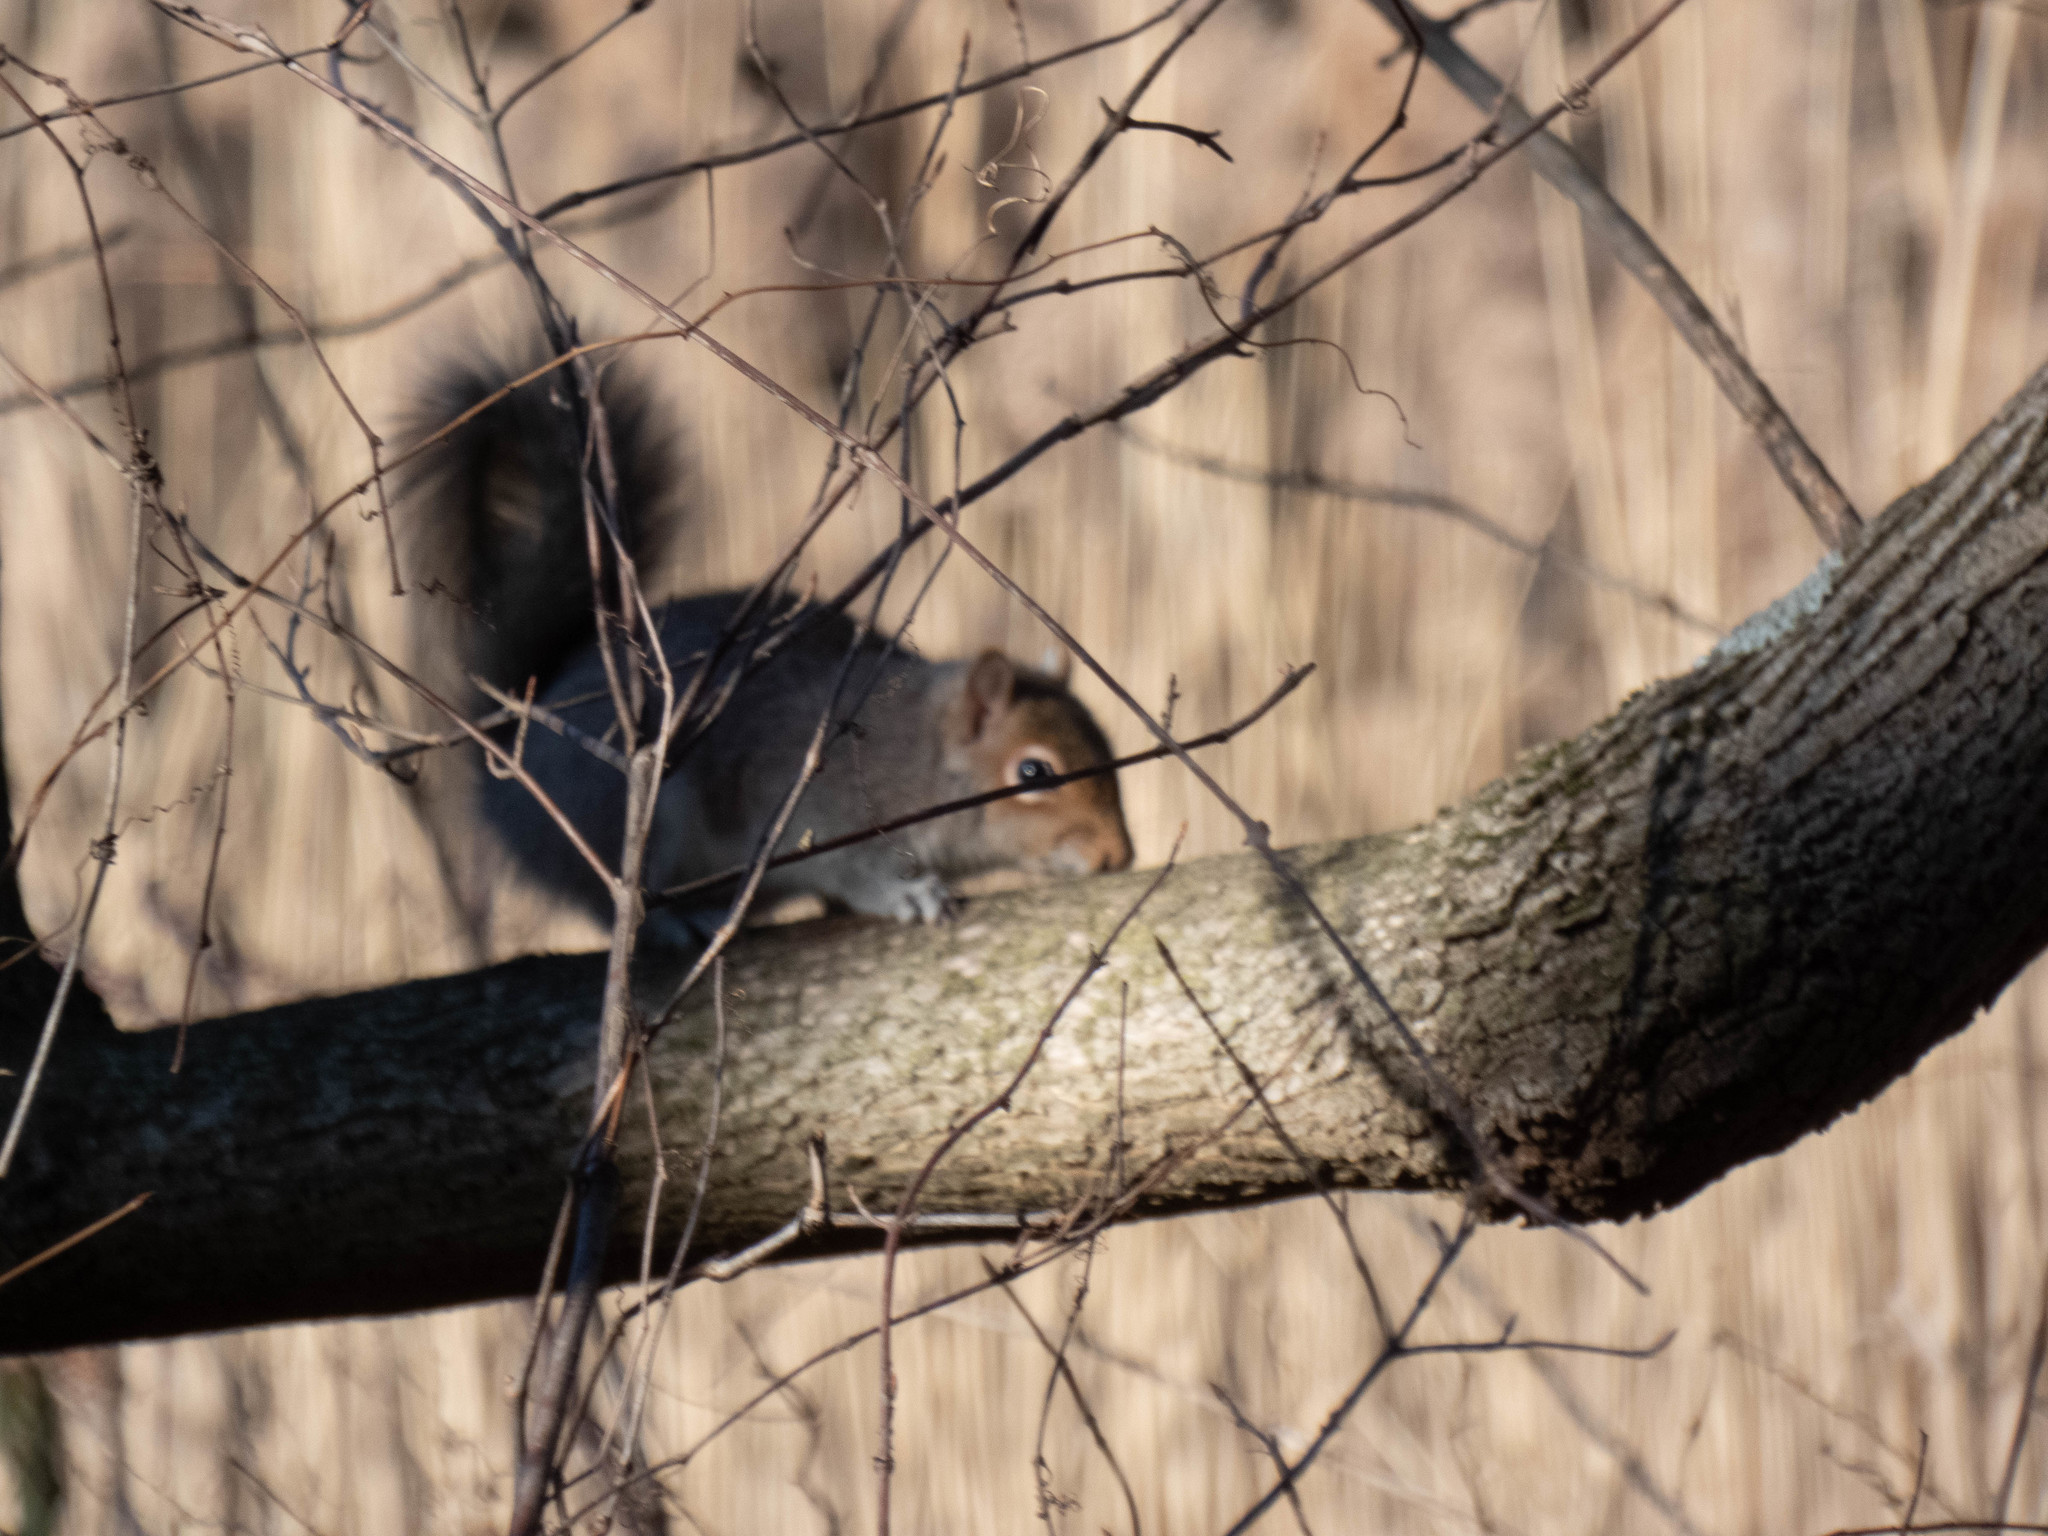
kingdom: Animalia
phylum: Chordata
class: Mammalia
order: Rodentia
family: Sciuridae
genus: Sciurus
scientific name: Sciurus carolinensis
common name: Eastern gray squirrel
